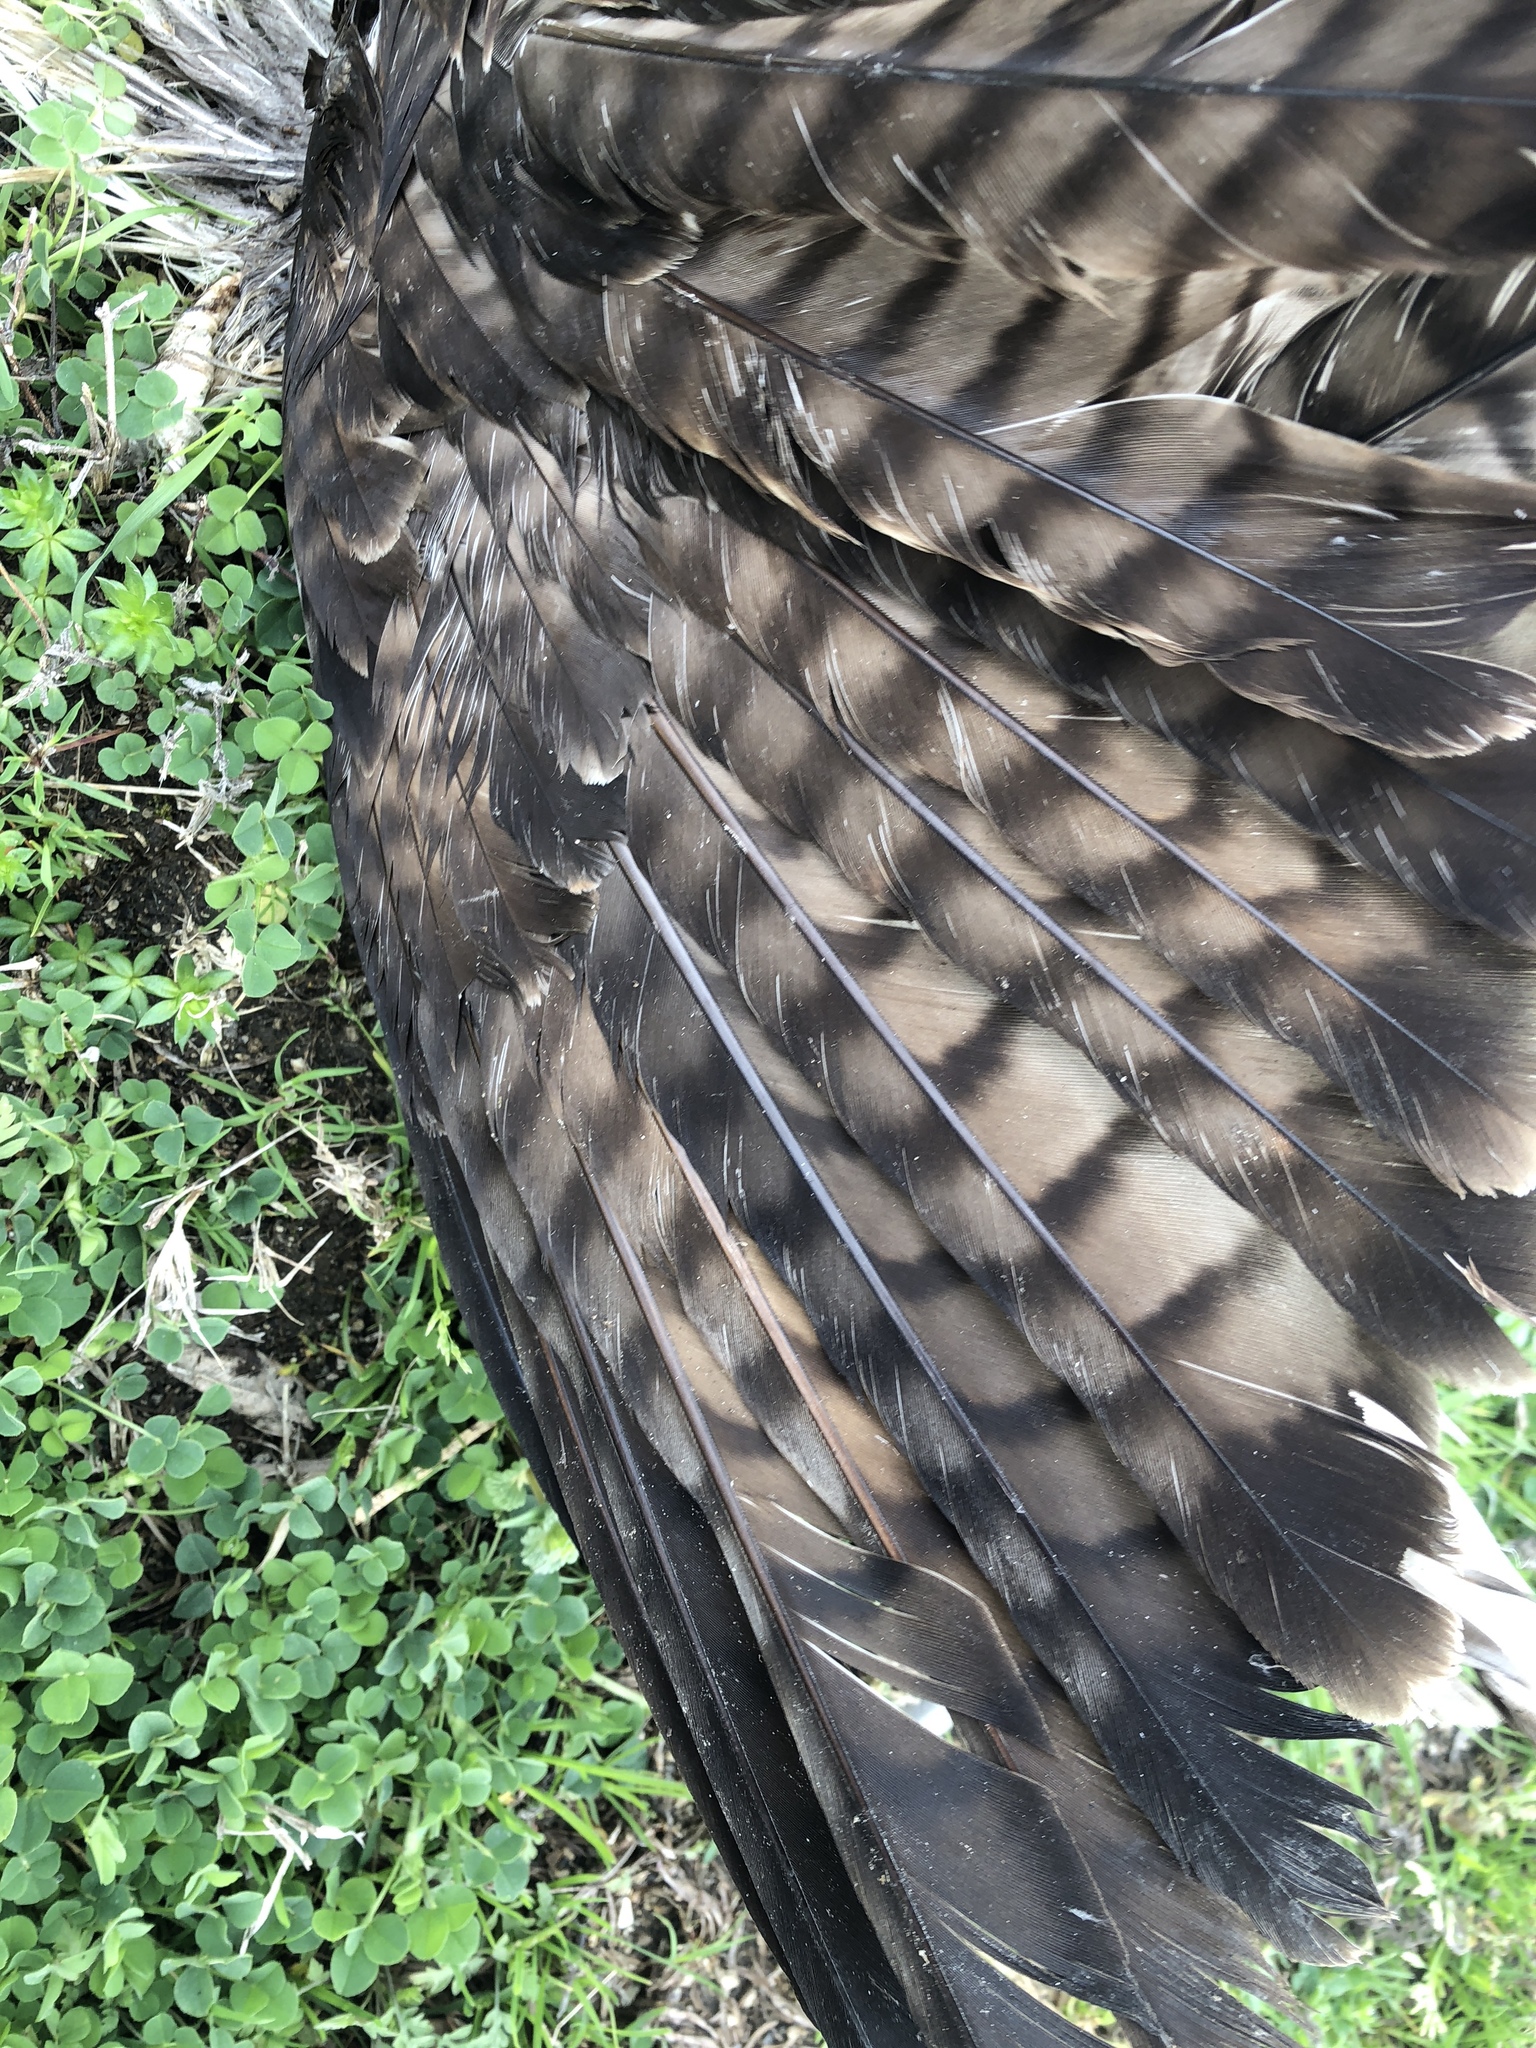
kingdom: Animalia
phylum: Chordata
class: Aves
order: Accipitriformes
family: Accipitridae
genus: Buteo
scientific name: Buteo jamaicensis
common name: Red-tailed hawk
